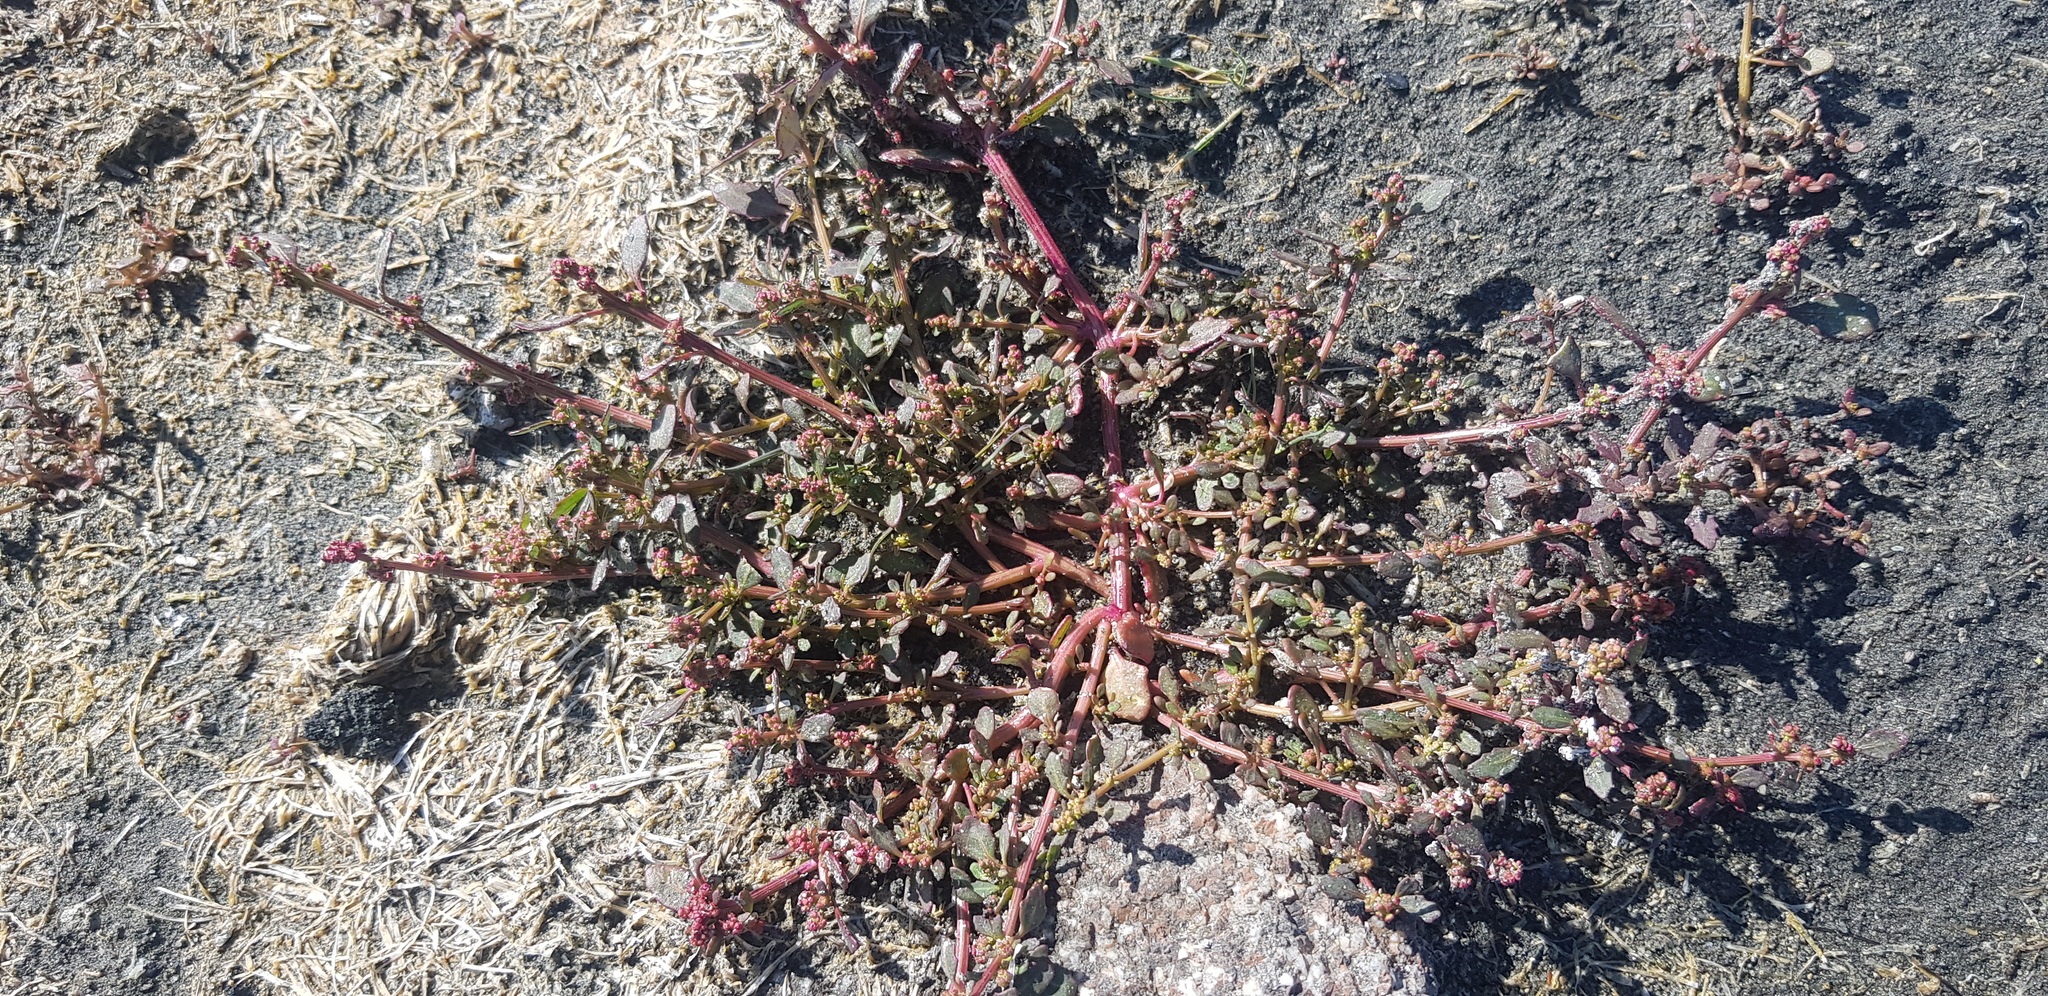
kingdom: Plantae
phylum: Tracheophyta
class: Magnoliopsida
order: Caryophyllales
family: Polygonaceae
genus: Polygonum
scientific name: Polygonum aviculare
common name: Prostrate knotweed
